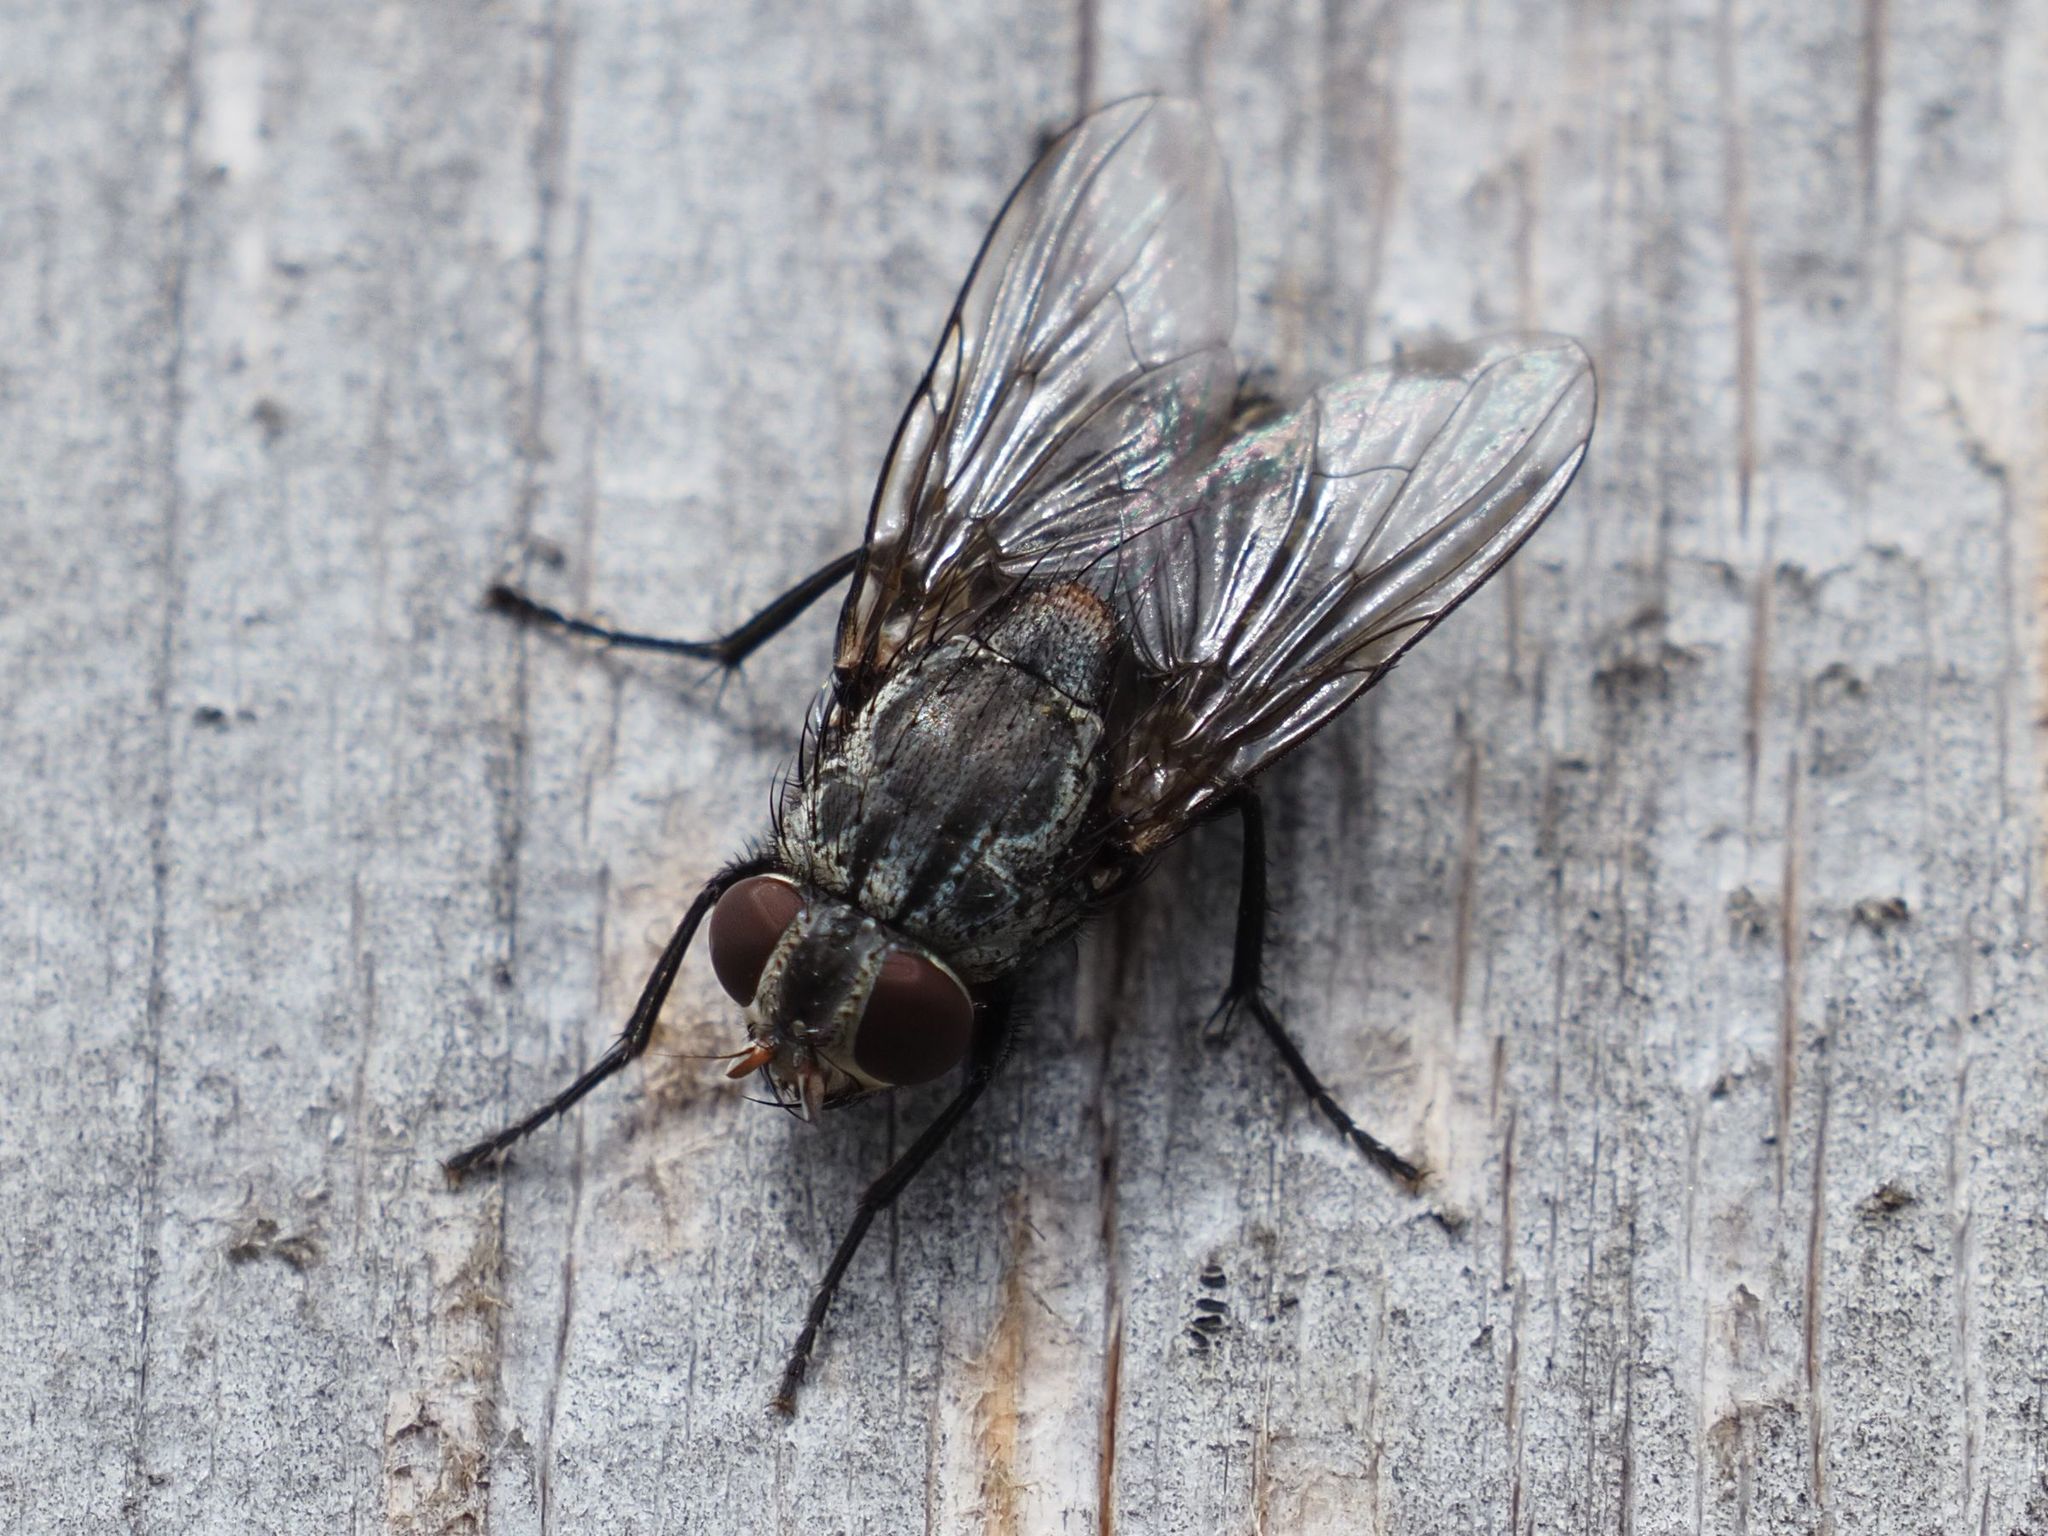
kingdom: Animalia
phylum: Arthropoda
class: Insecta
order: Diptera
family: Muscidae
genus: Muscina
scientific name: Muscina prolapsa
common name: Muscoid fly
